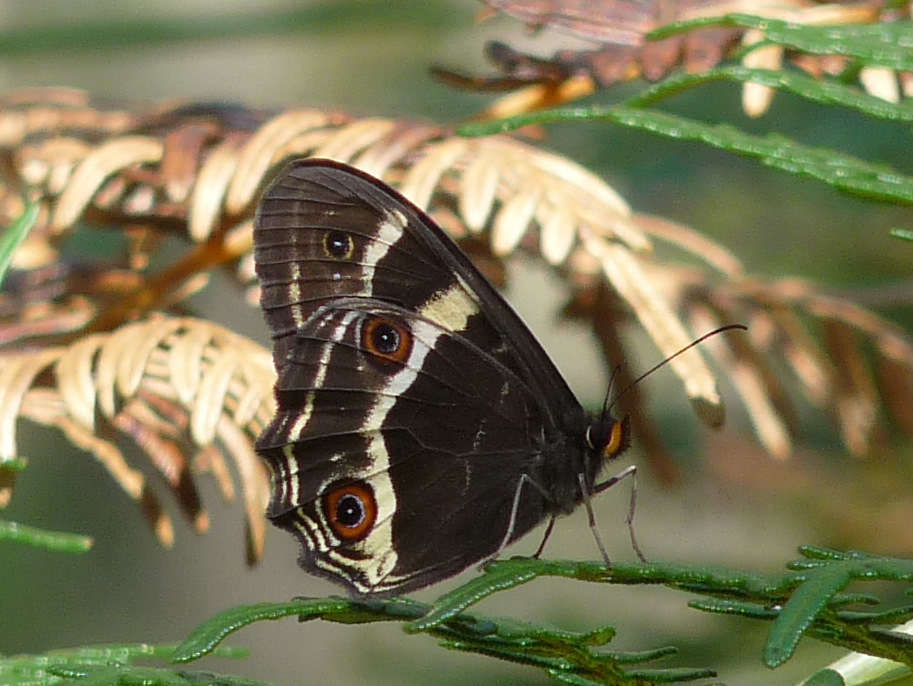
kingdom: Animalia
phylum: Arthropoda
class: Insecta
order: Lepidoptera
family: Nymphalidae
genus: Tisiphone
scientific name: Tisiphone abeona
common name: Swordgrass brown
